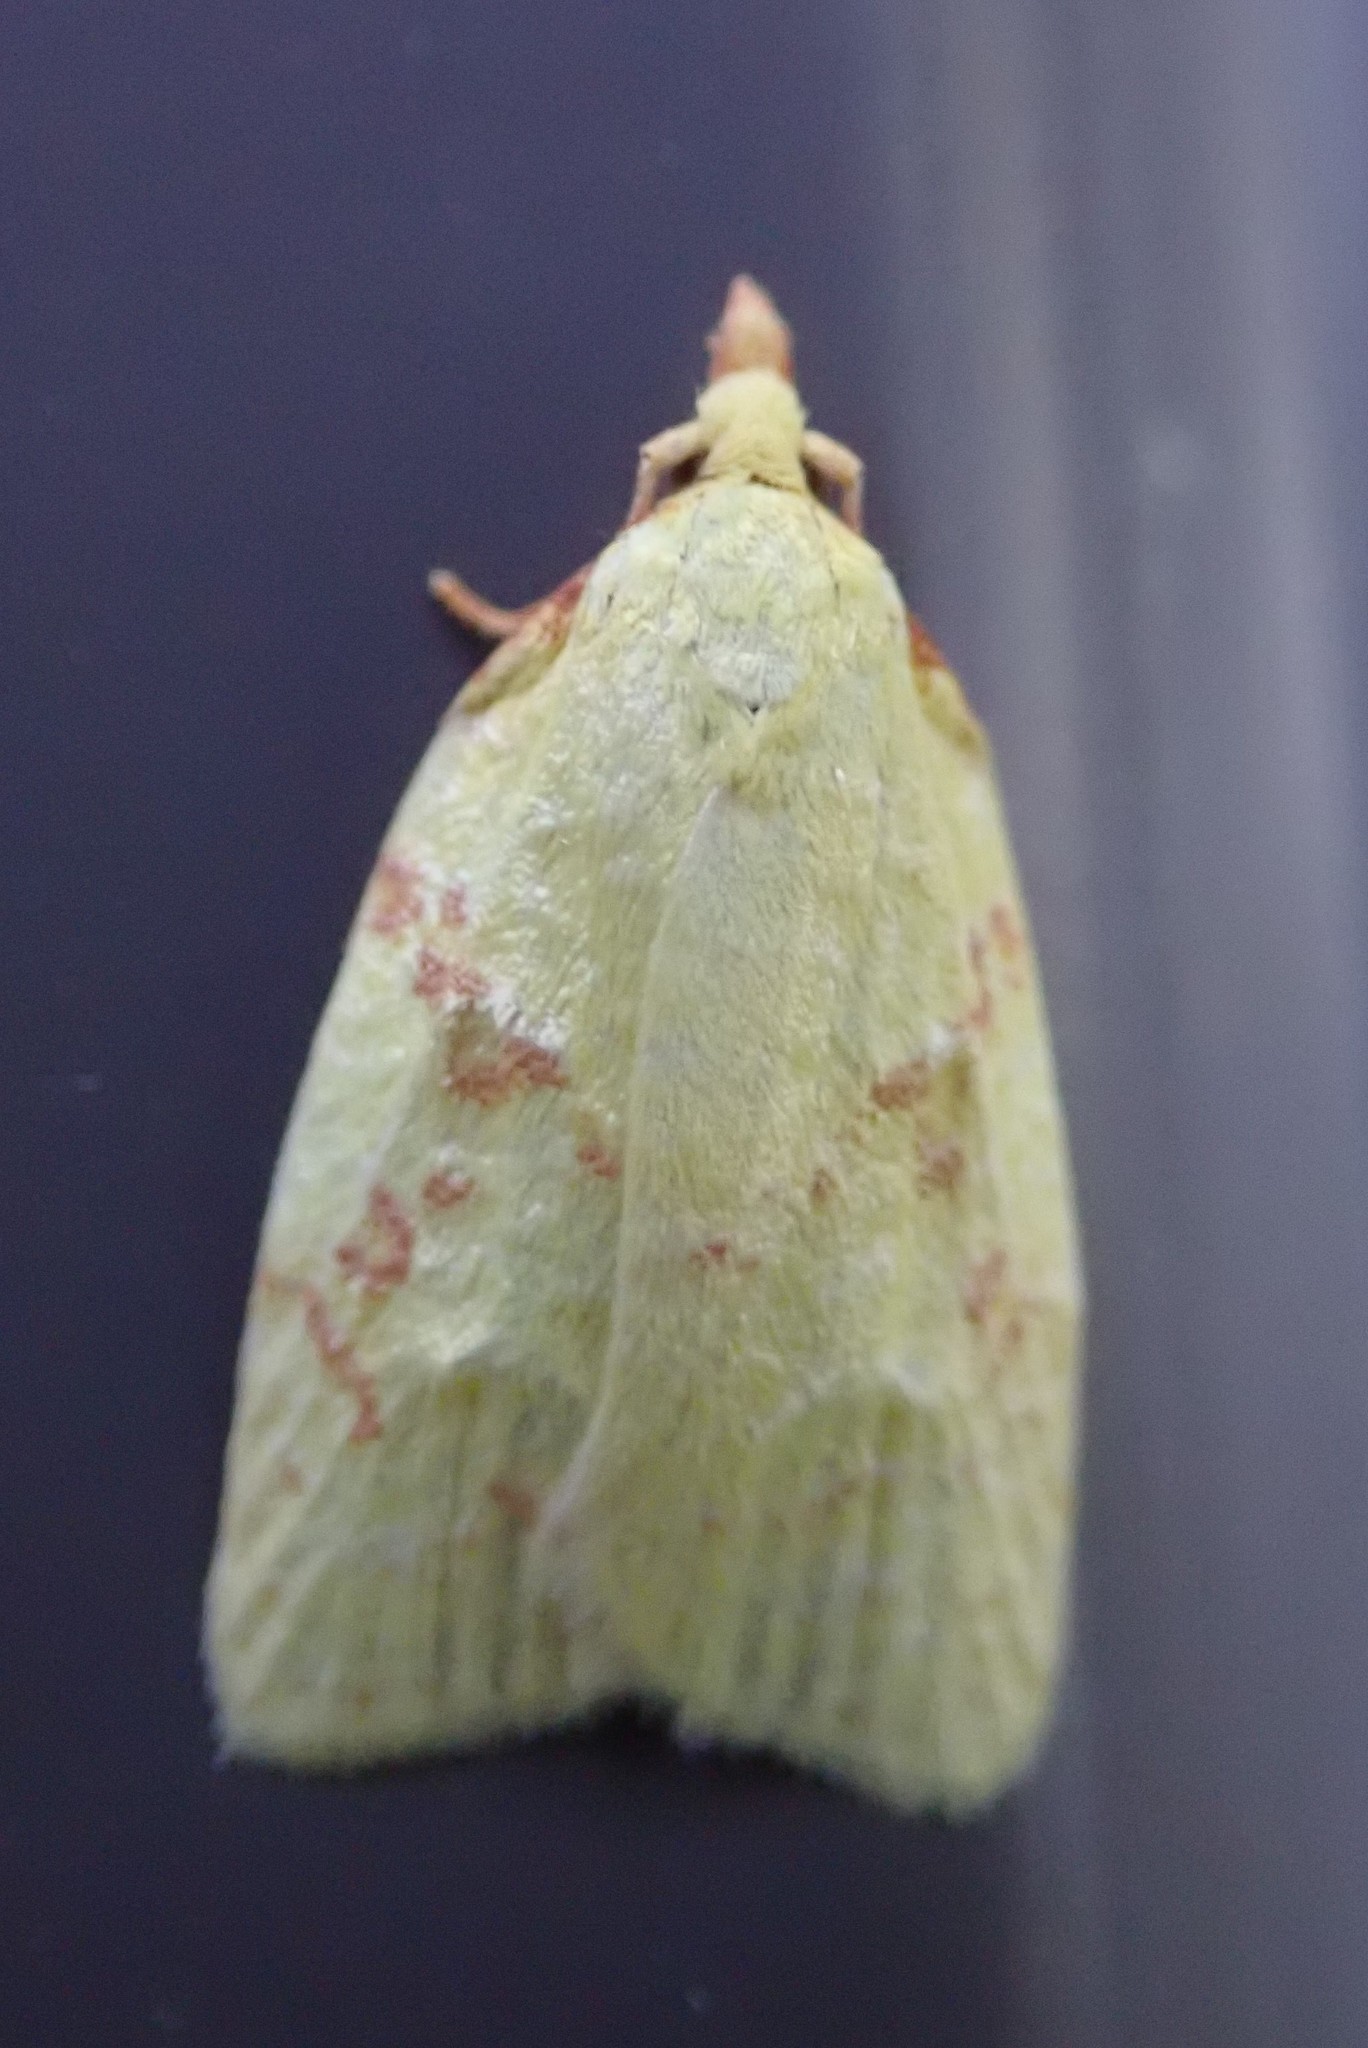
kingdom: Animalia
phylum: Arthropoda
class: Insecta
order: Lepidoptera
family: Tortricidae
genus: Cenopis
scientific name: Cenopis pettitana
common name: Maple-basswood leafroller moth
